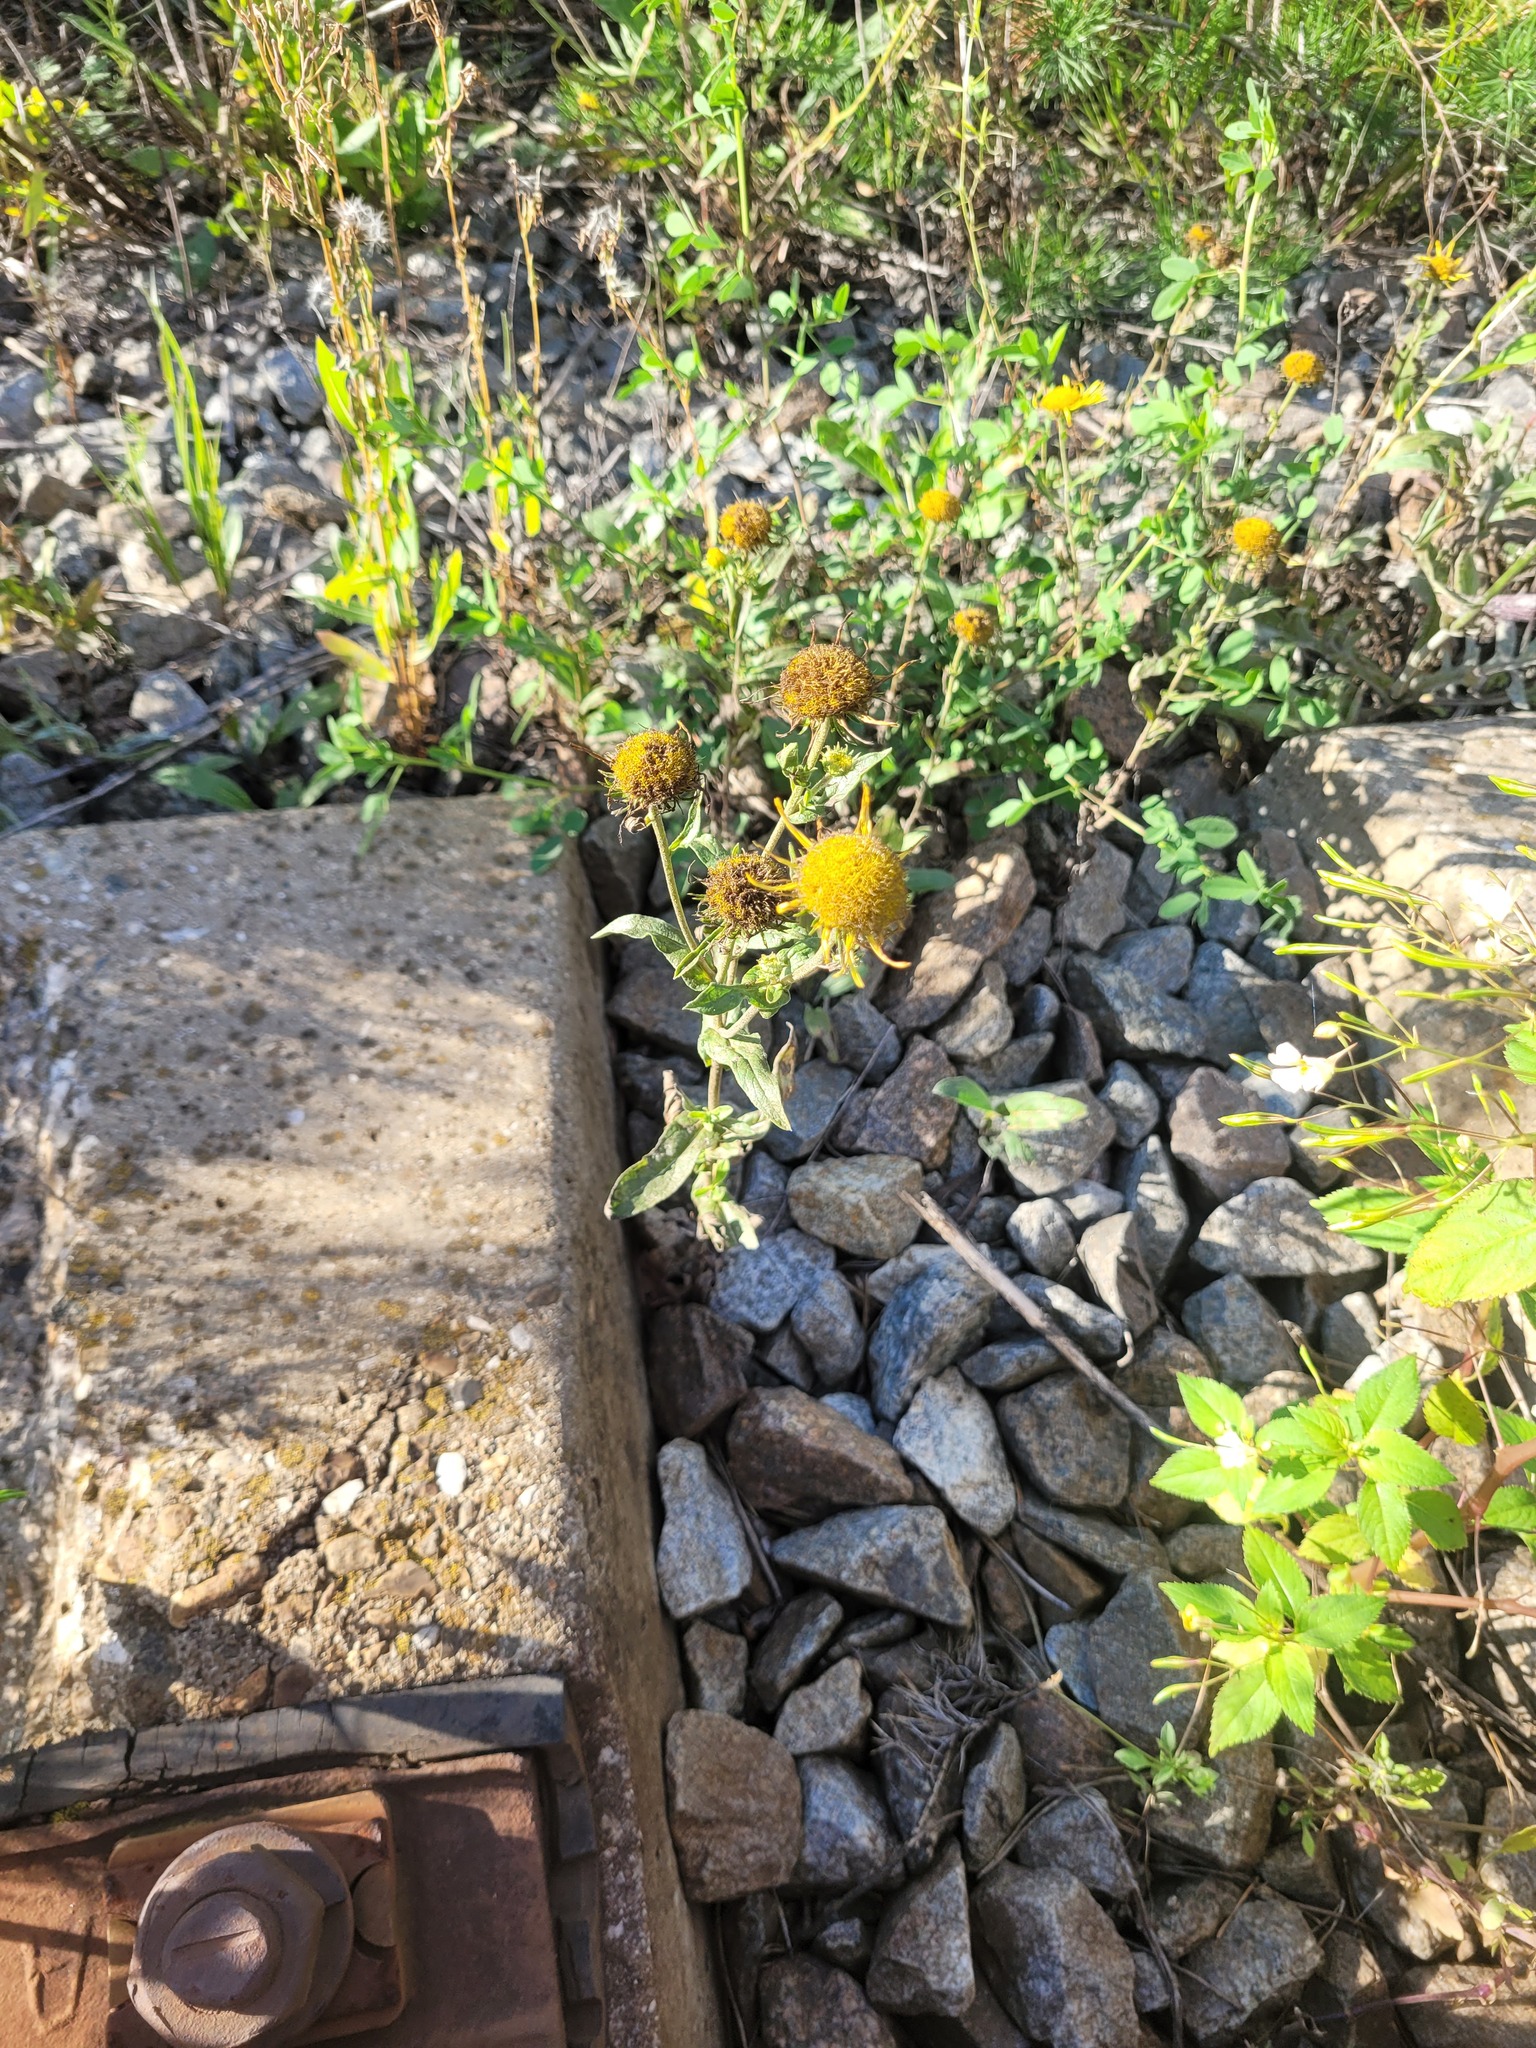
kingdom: Plantae
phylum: Tracheophyta
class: Magnoliopsida
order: Asterales
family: Asteraceae
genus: Pentanema
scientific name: Pentanema britannicum
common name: British elecampane
